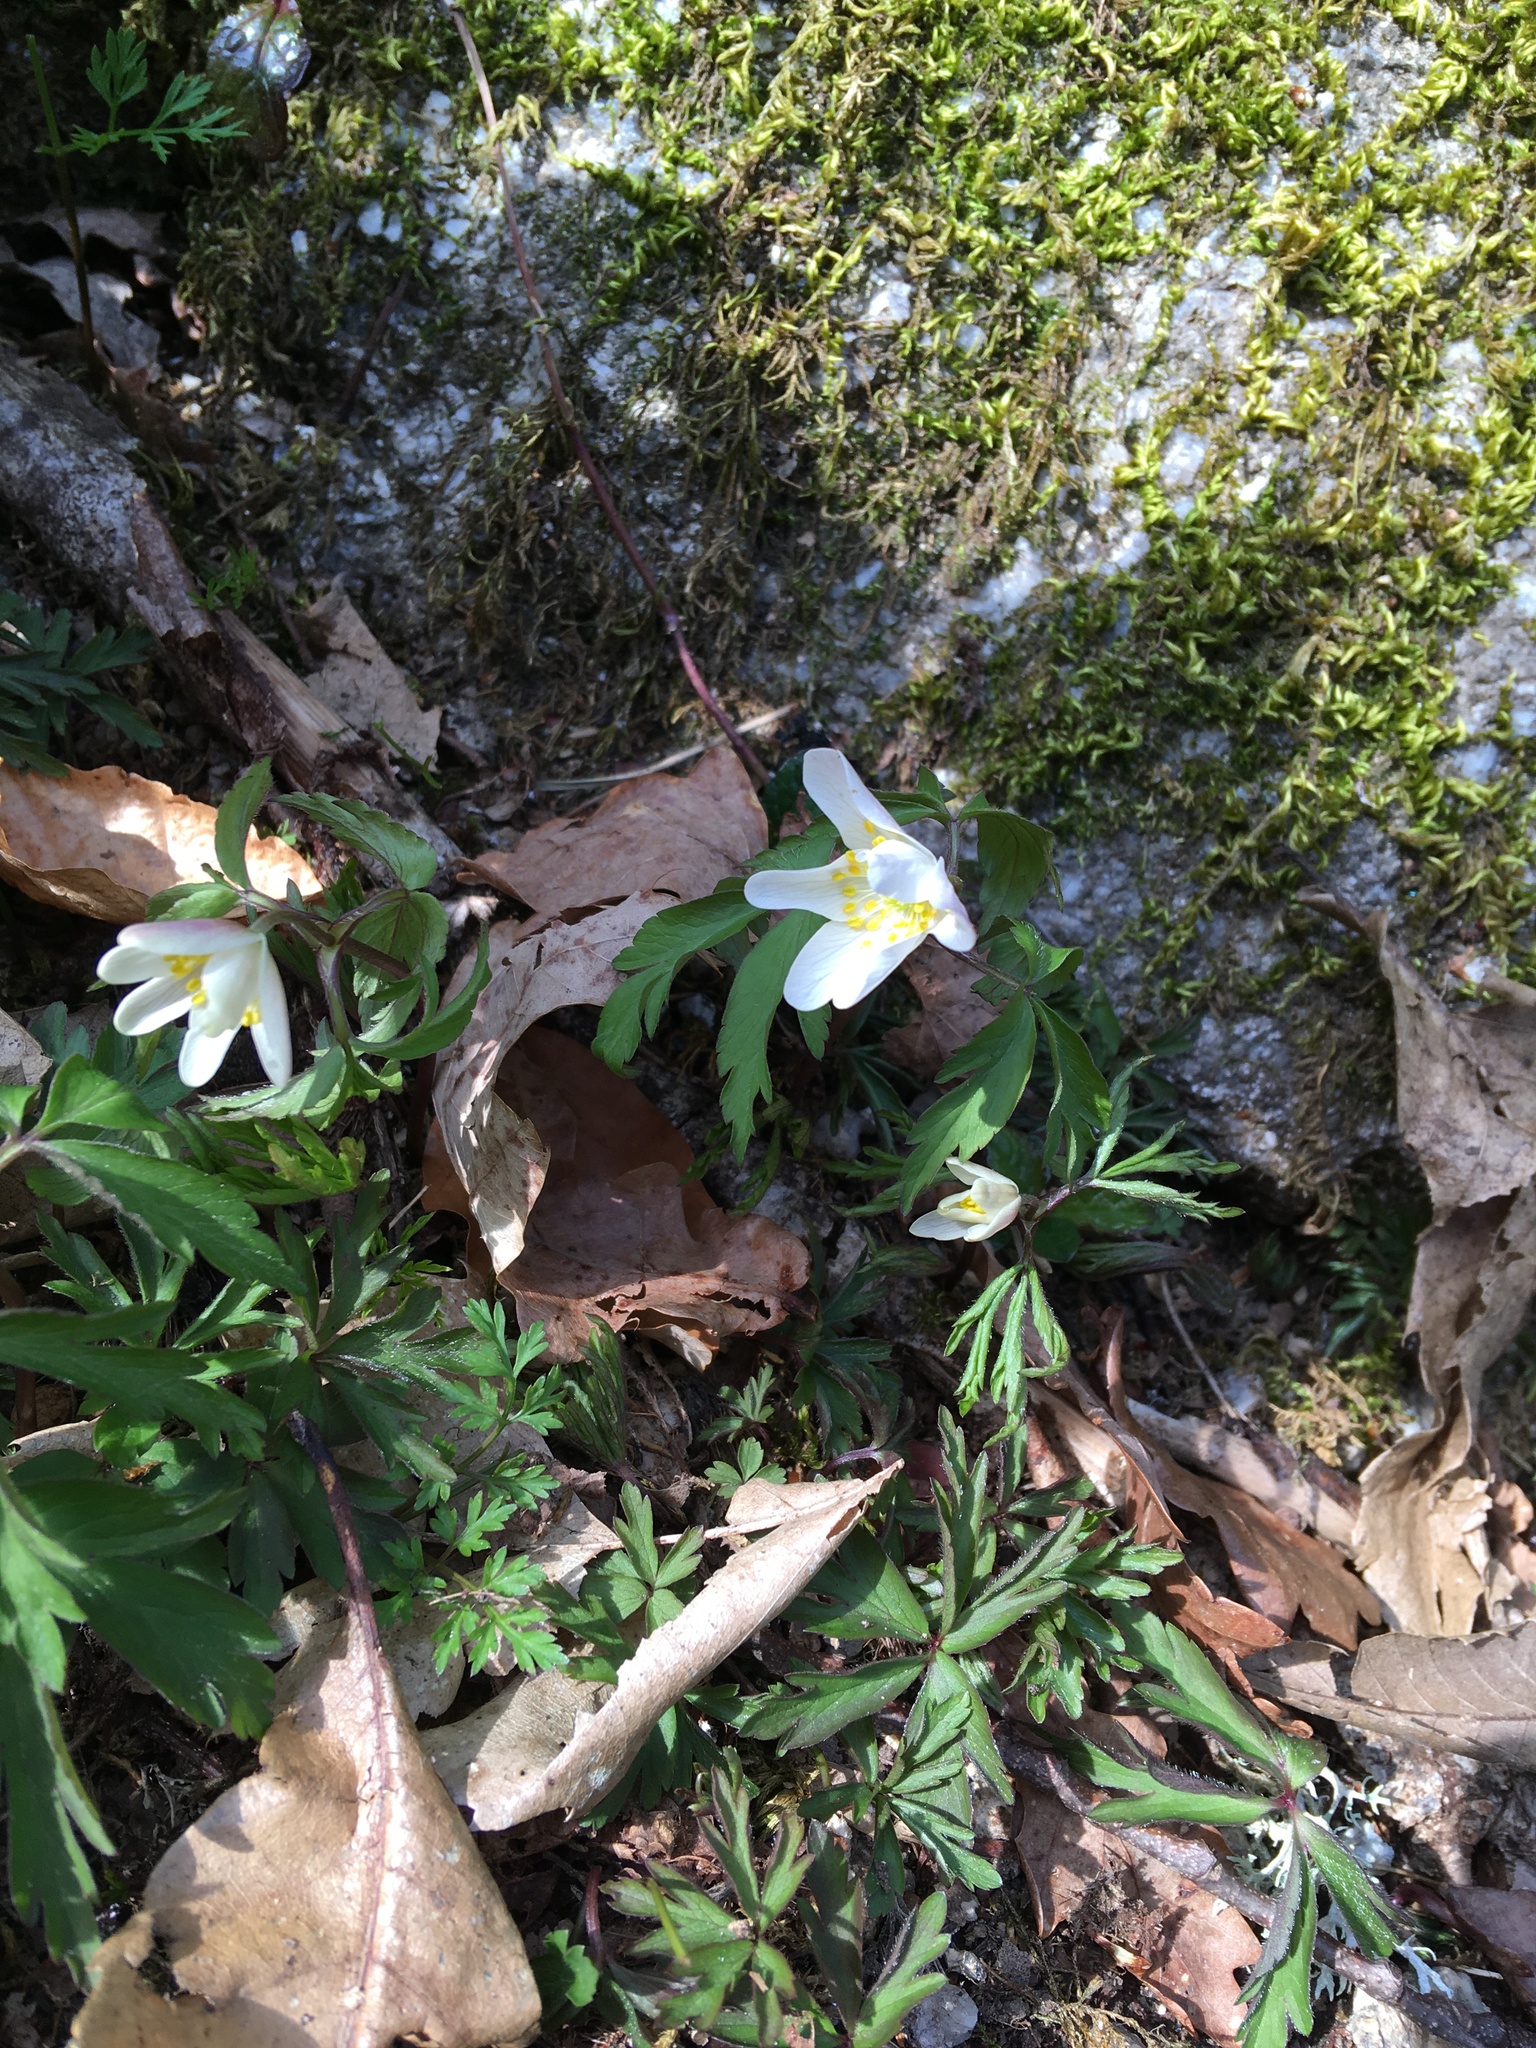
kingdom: Plantae
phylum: Tracheophyta
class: Magnoliopsida
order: Ranunculales
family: Ranunculaceae
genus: Anemone
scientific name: Anemone nemorosa
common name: Wood anemone
